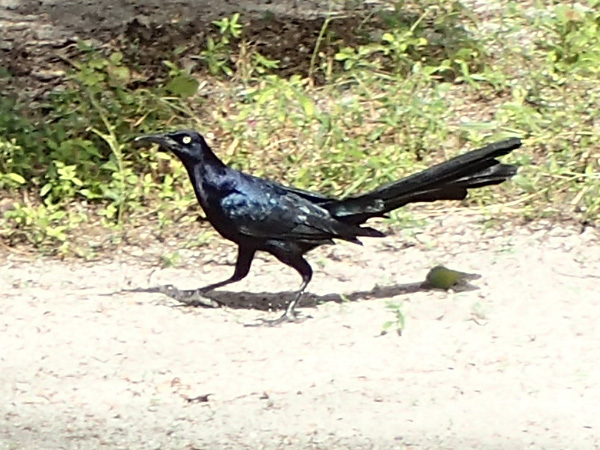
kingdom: Animalia
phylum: Chordata
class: Aves
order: Passeriformes
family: Icteridae
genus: Quiscalus
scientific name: Quiscalus mexicanus
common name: Great-tailed grackle
